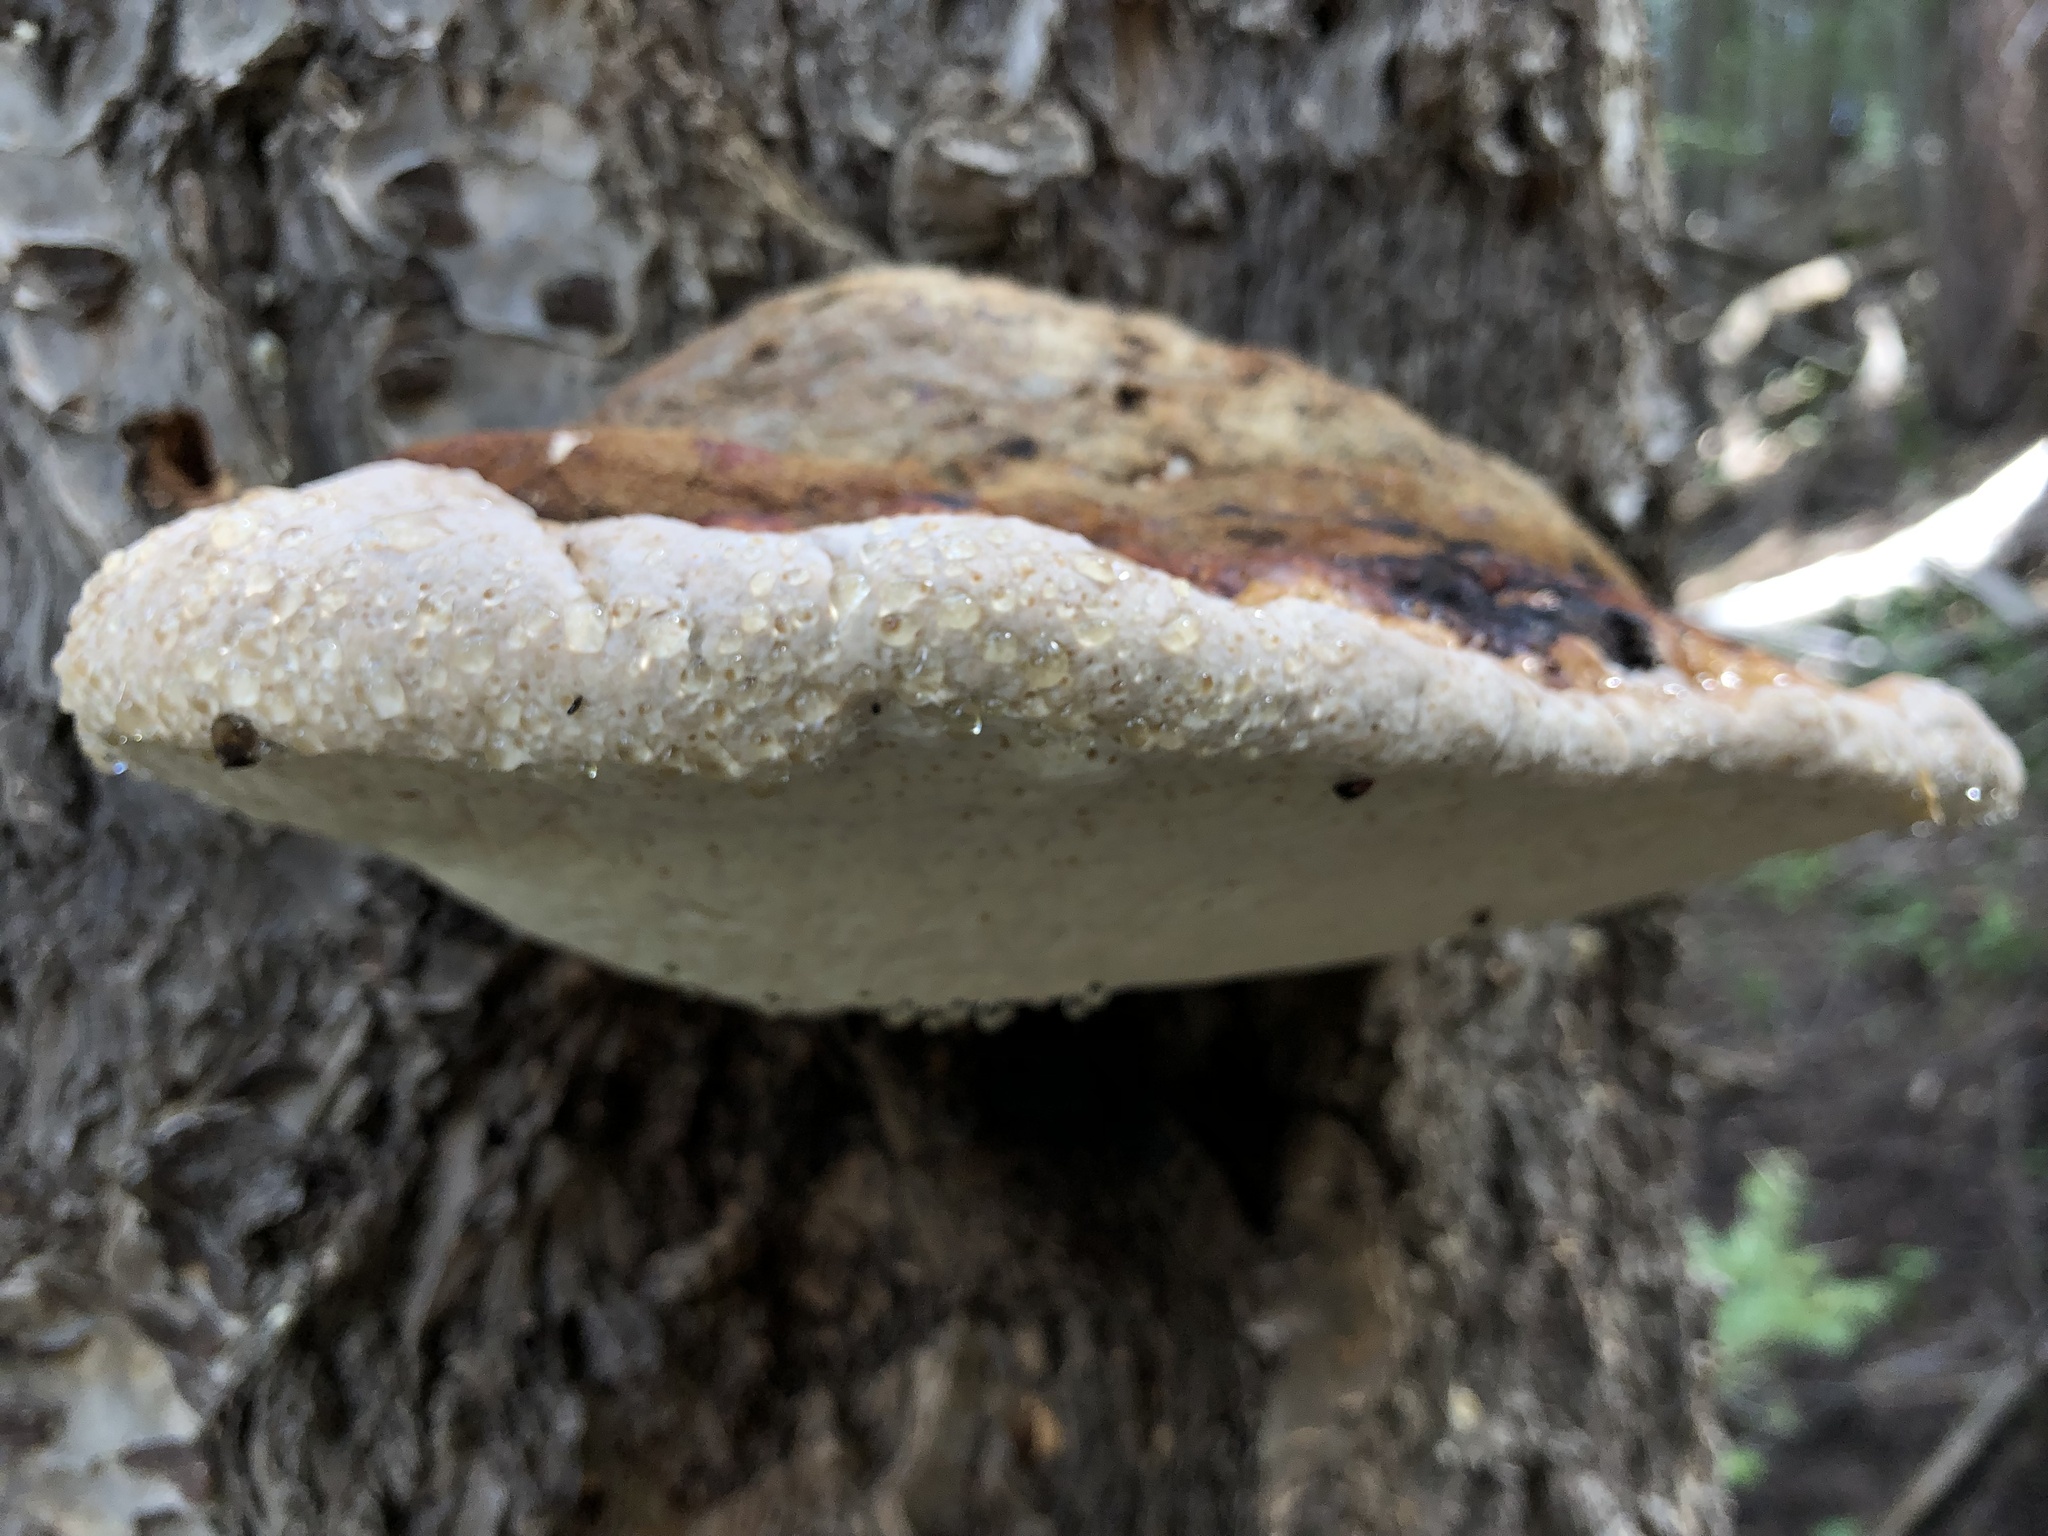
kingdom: Fungi
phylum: Basidiomycota
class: Agaricomycetes
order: Polyporales
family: Fomitopsidaceae
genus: Fomitopsis
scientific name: Fomitopsis schrenkii
